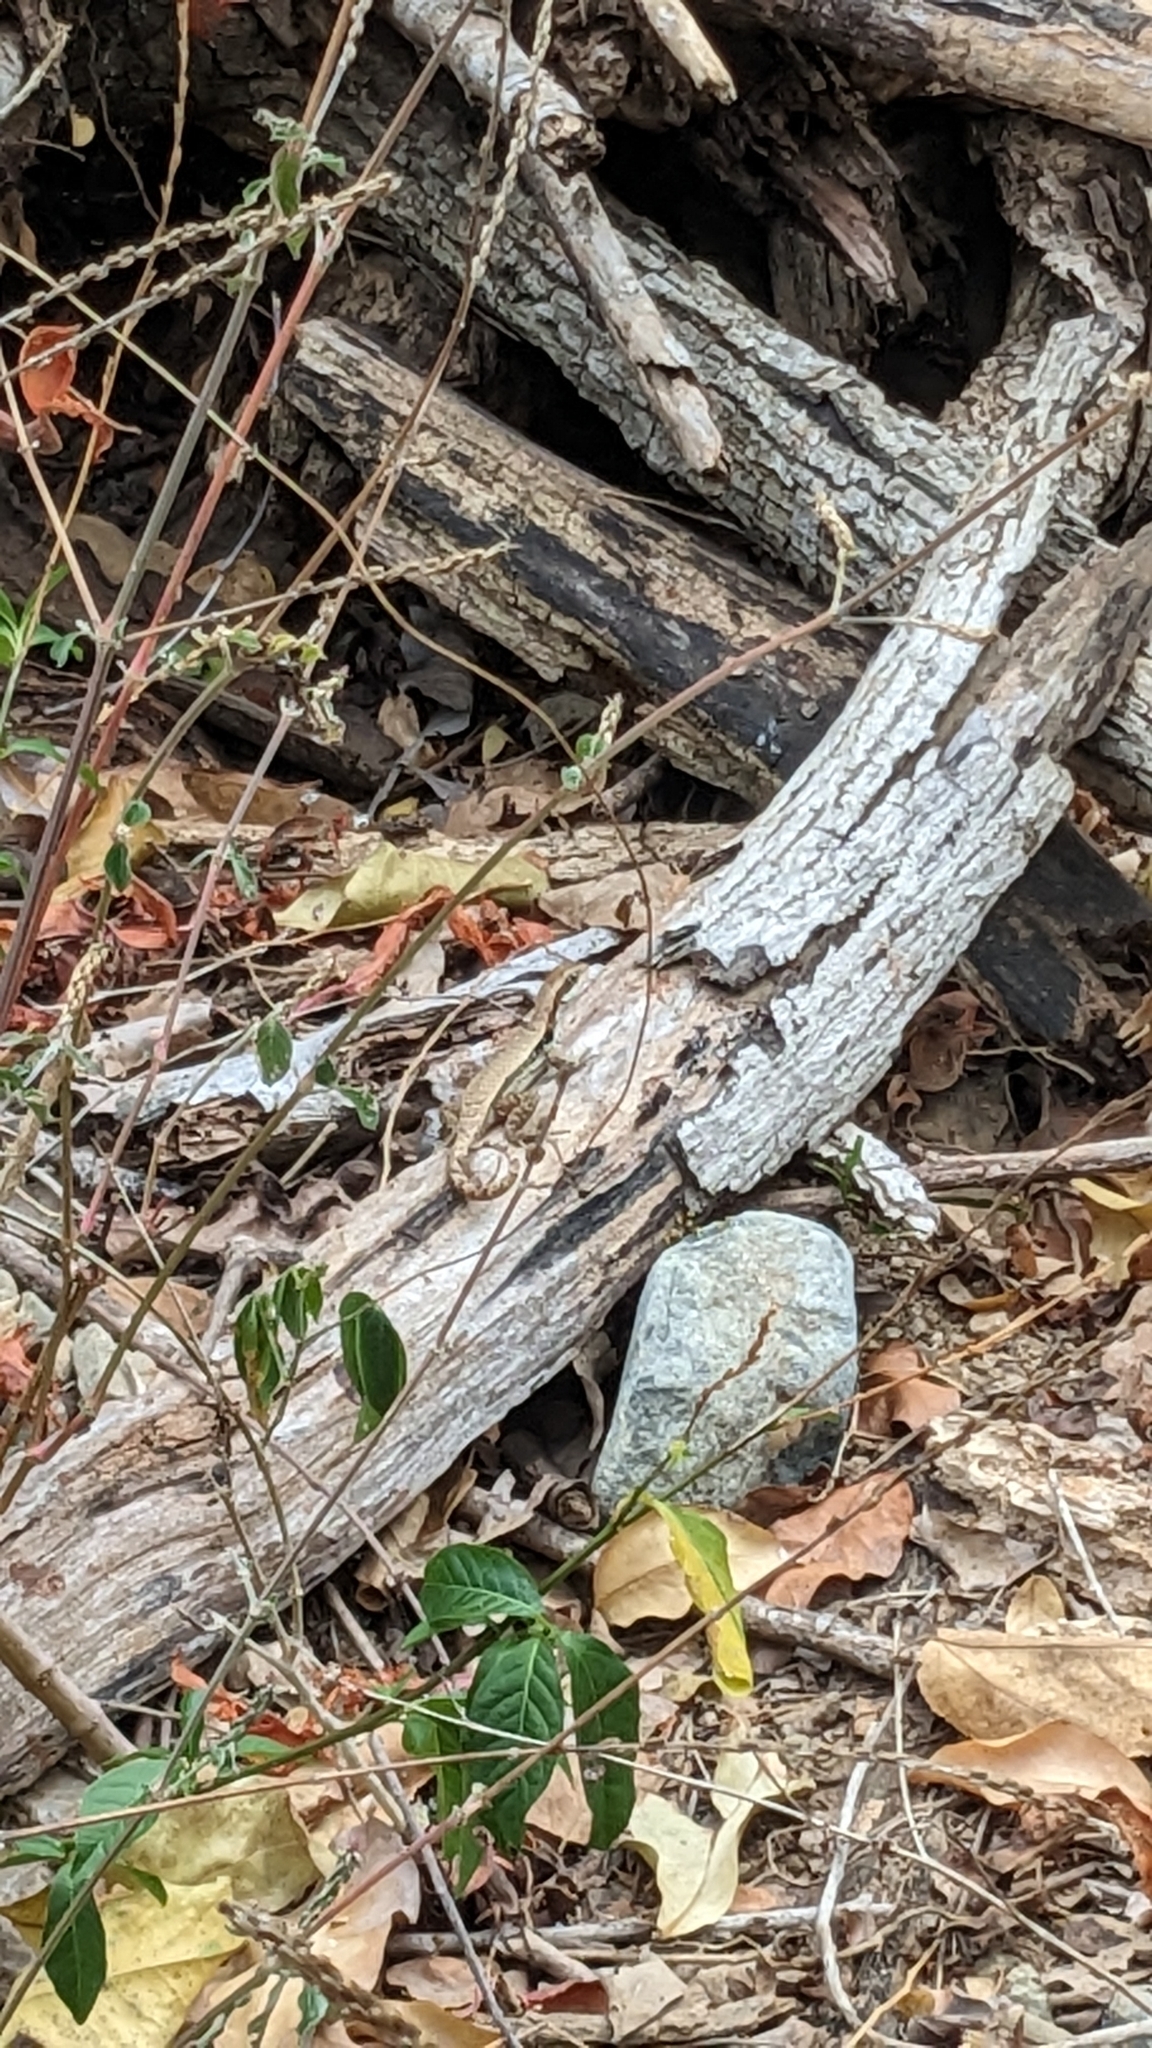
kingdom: Animalia
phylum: Chordata
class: Squamata
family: Leiocephalidae
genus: Leiocephalus
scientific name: Leiocephalus macropus
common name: Monte verde curlytail lizard
